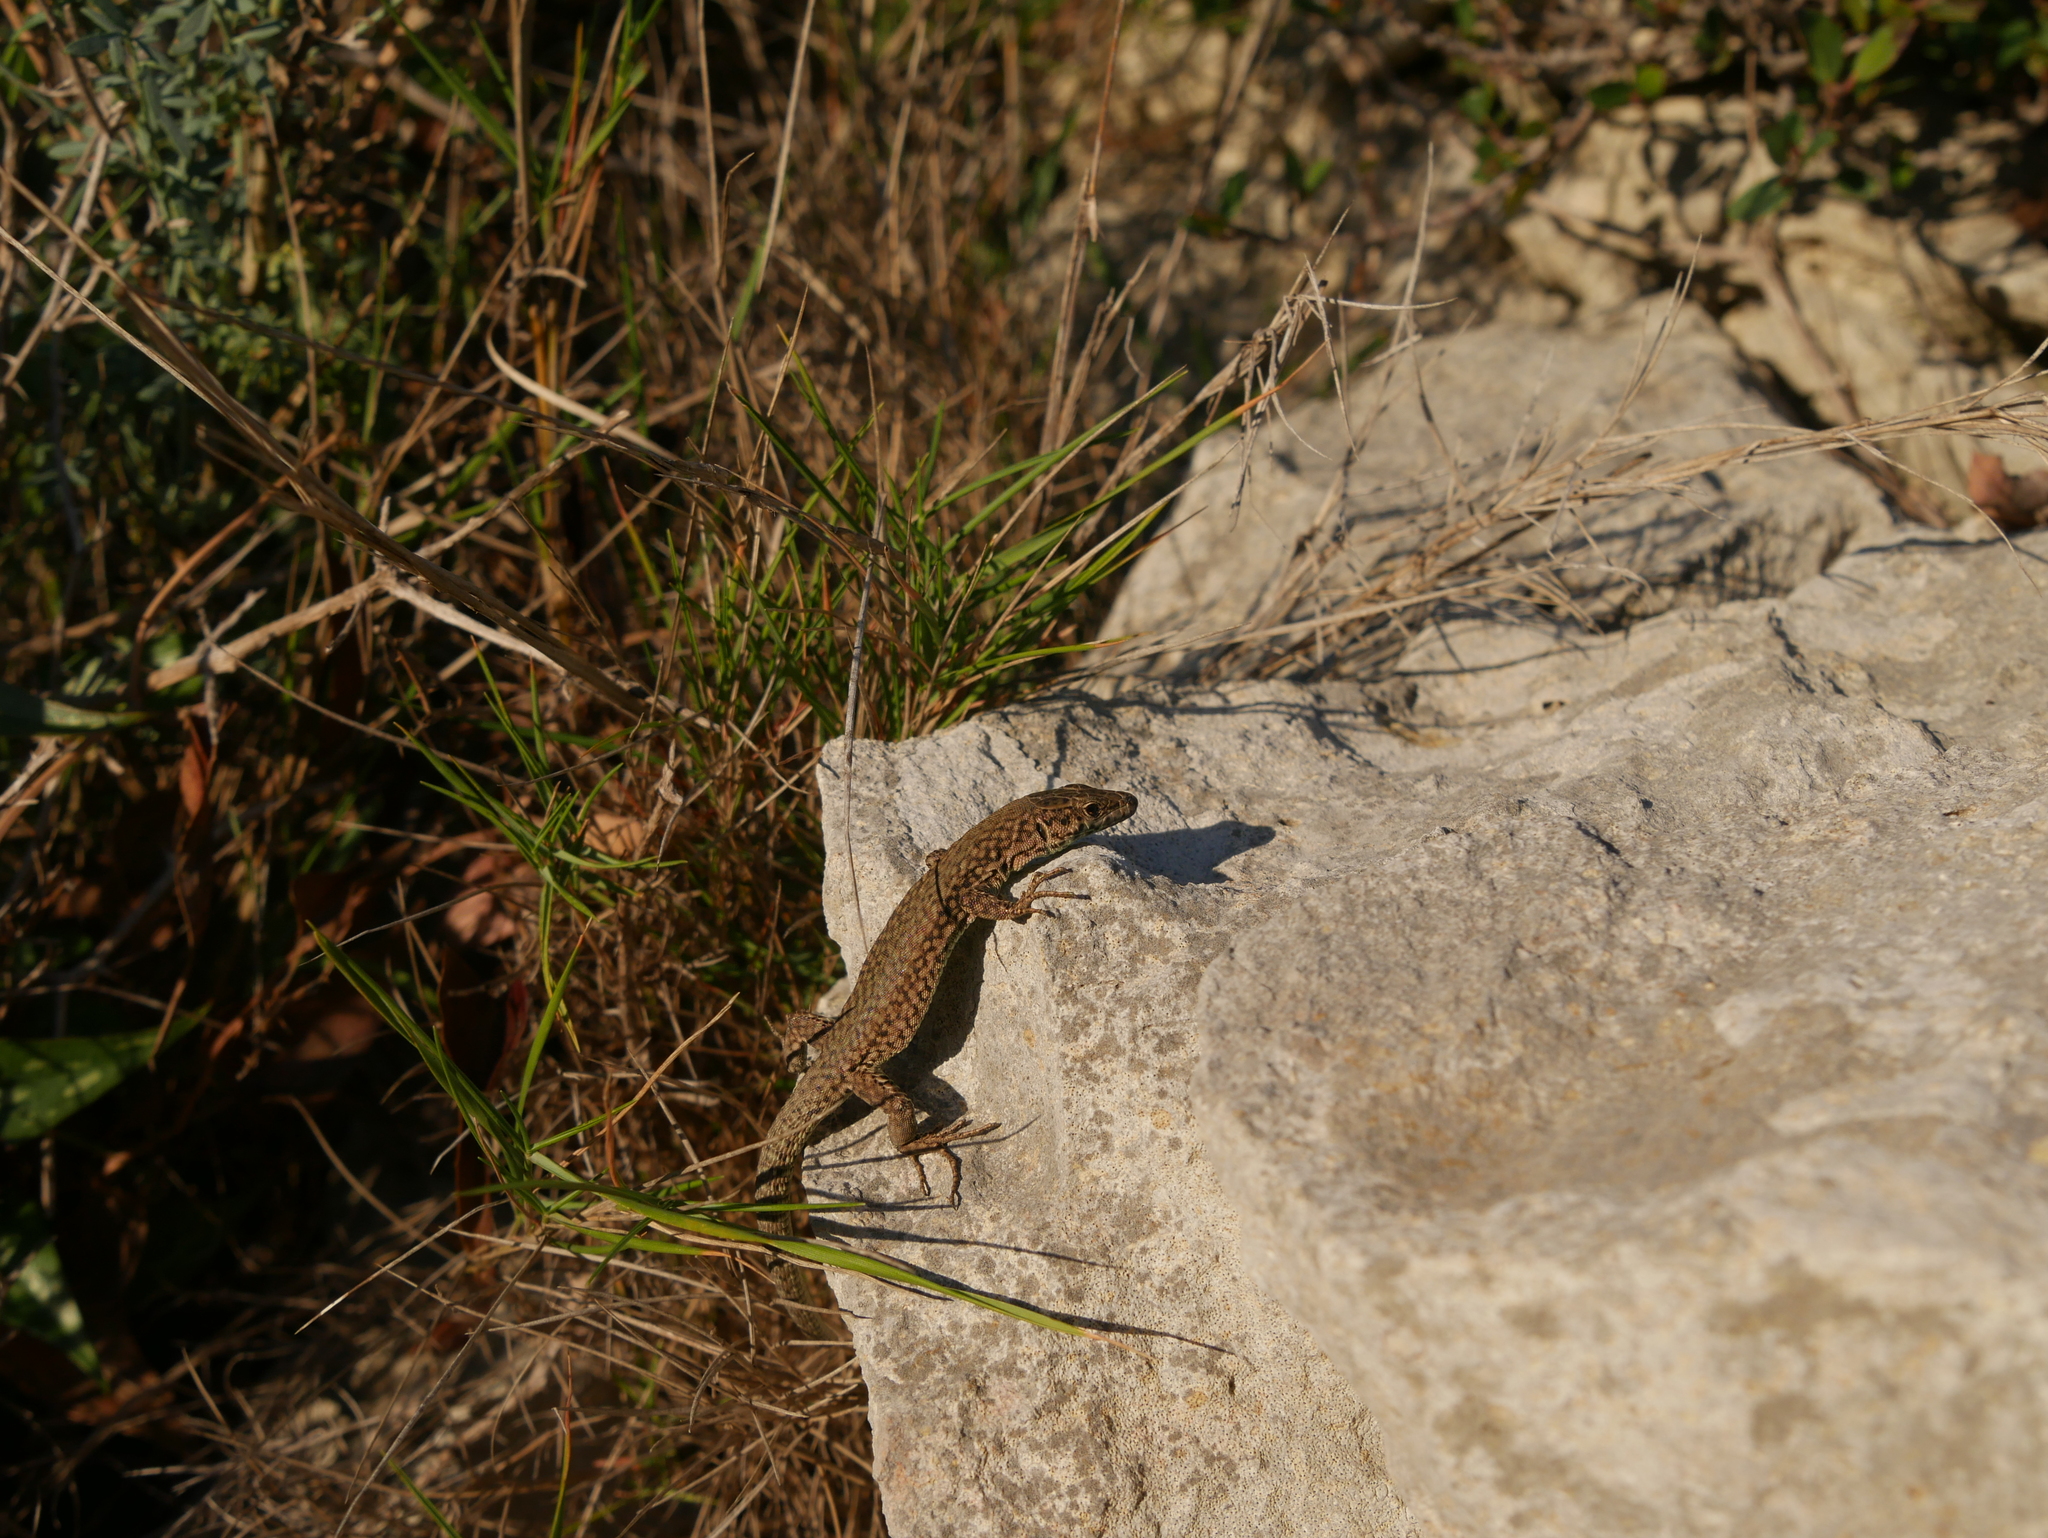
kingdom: Animalia
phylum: Chordata
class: Squamata
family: Lacertidae
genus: Podarcis
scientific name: Podarcis liolepis
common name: Catalonian wall lizard
